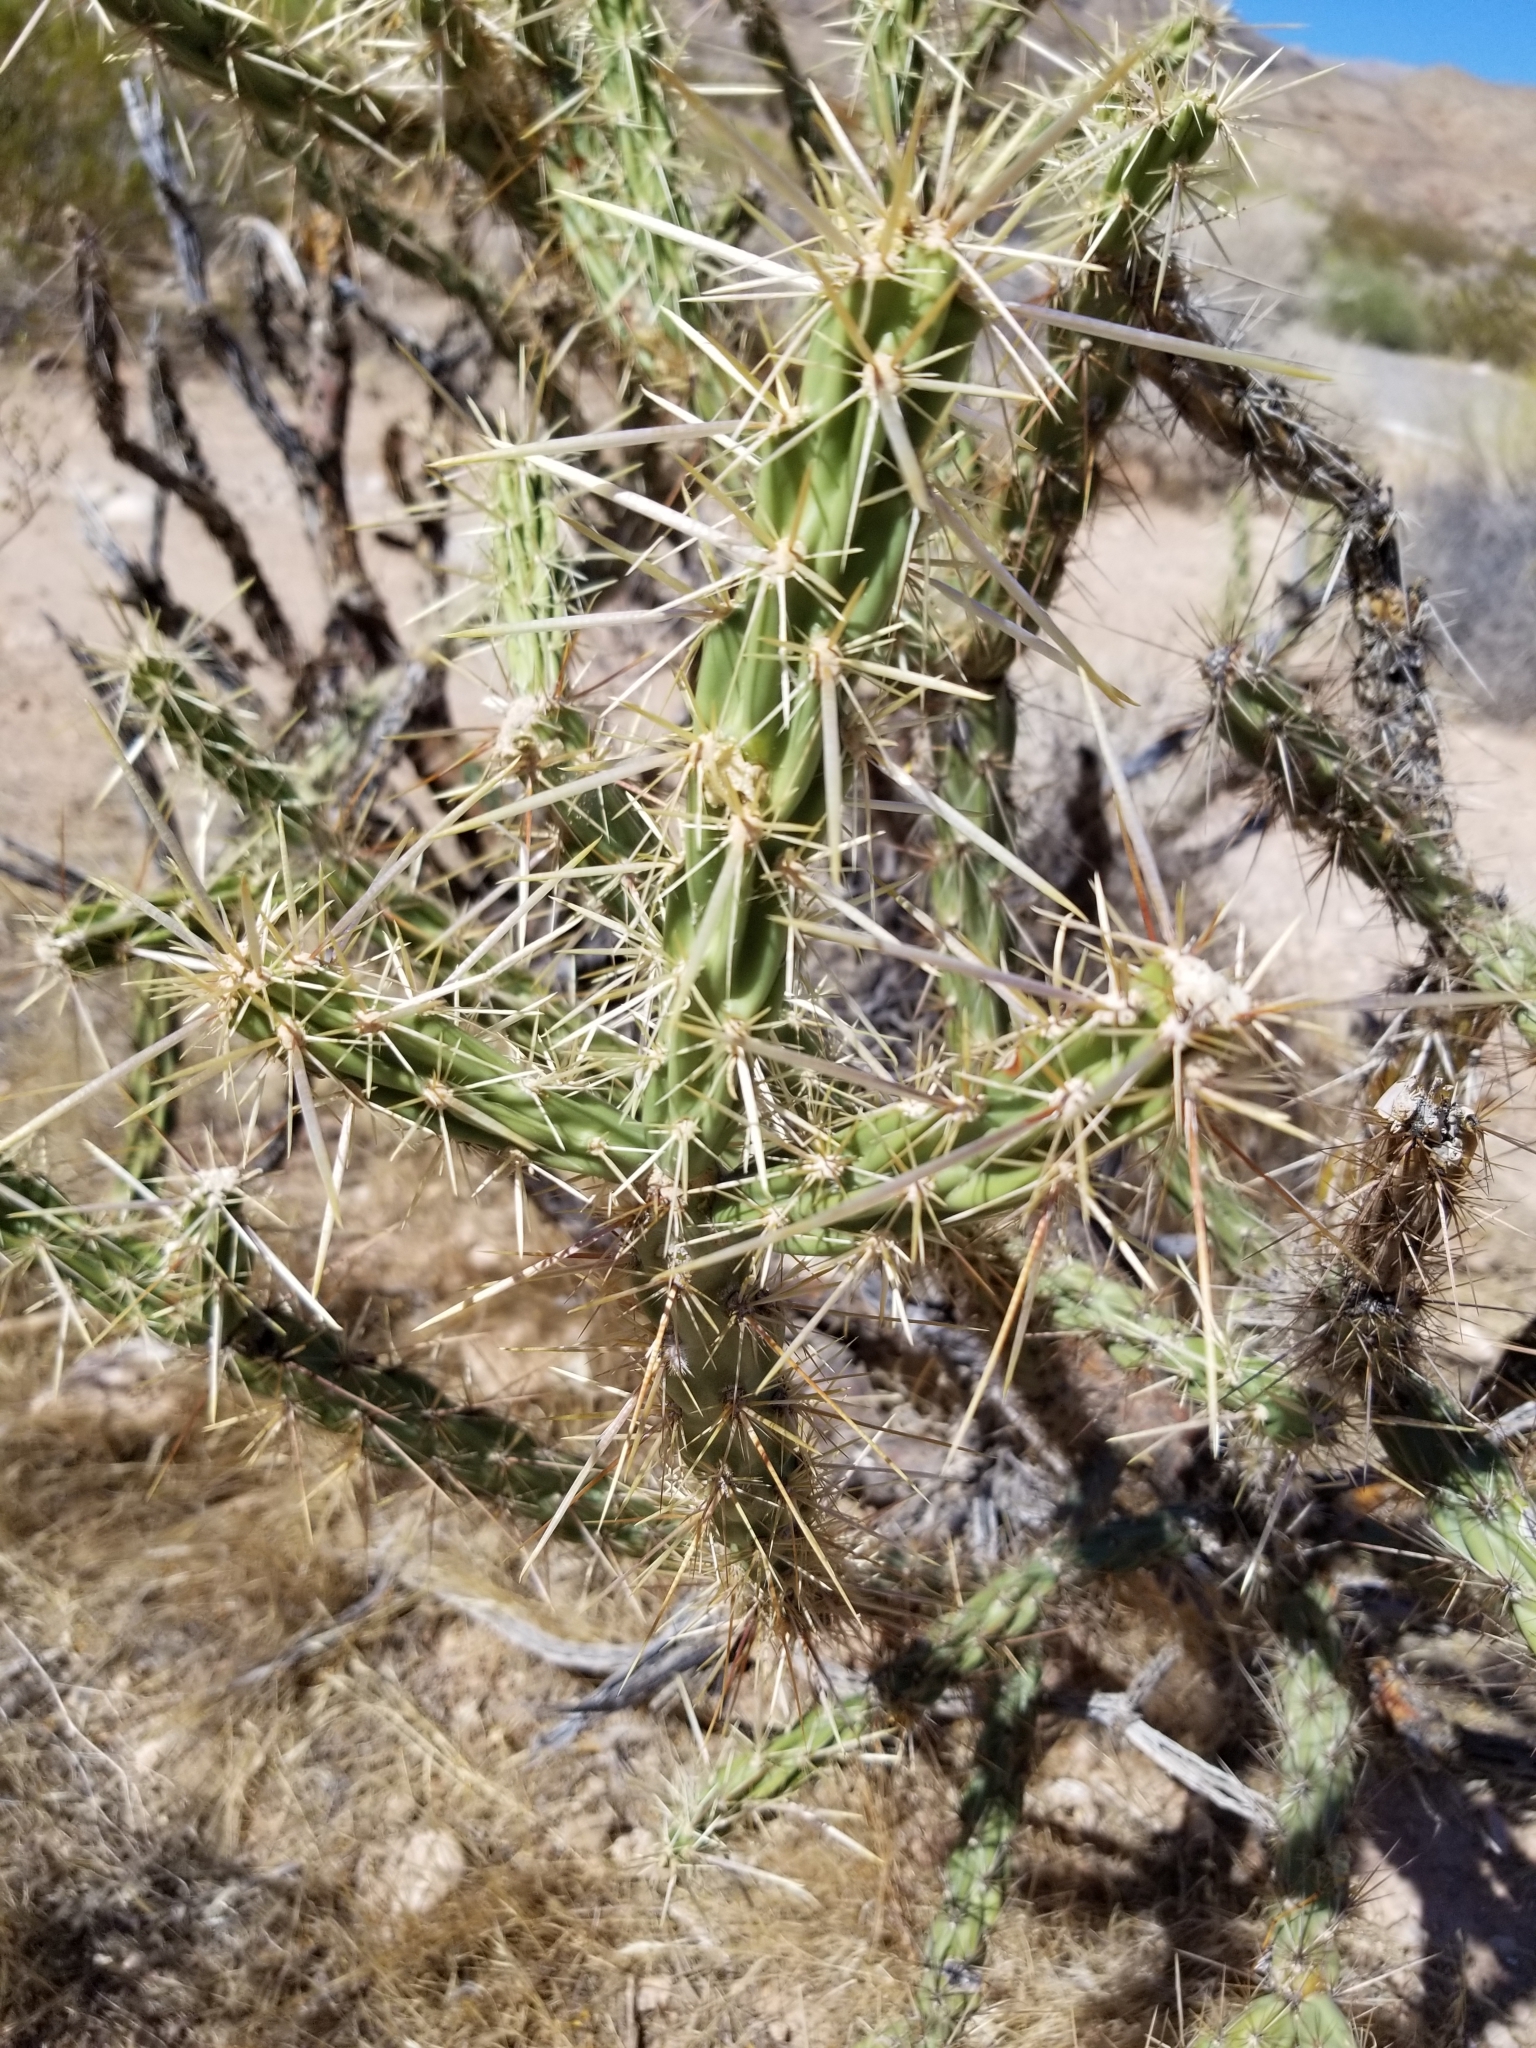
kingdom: Plantae
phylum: Tracheophyta
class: Magnoliopsida
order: Caryophyllales
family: Cactaceae
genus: Cylindropuntia
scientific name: Cylindropuntia acanthocarpa
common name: Buckhorn cholla
